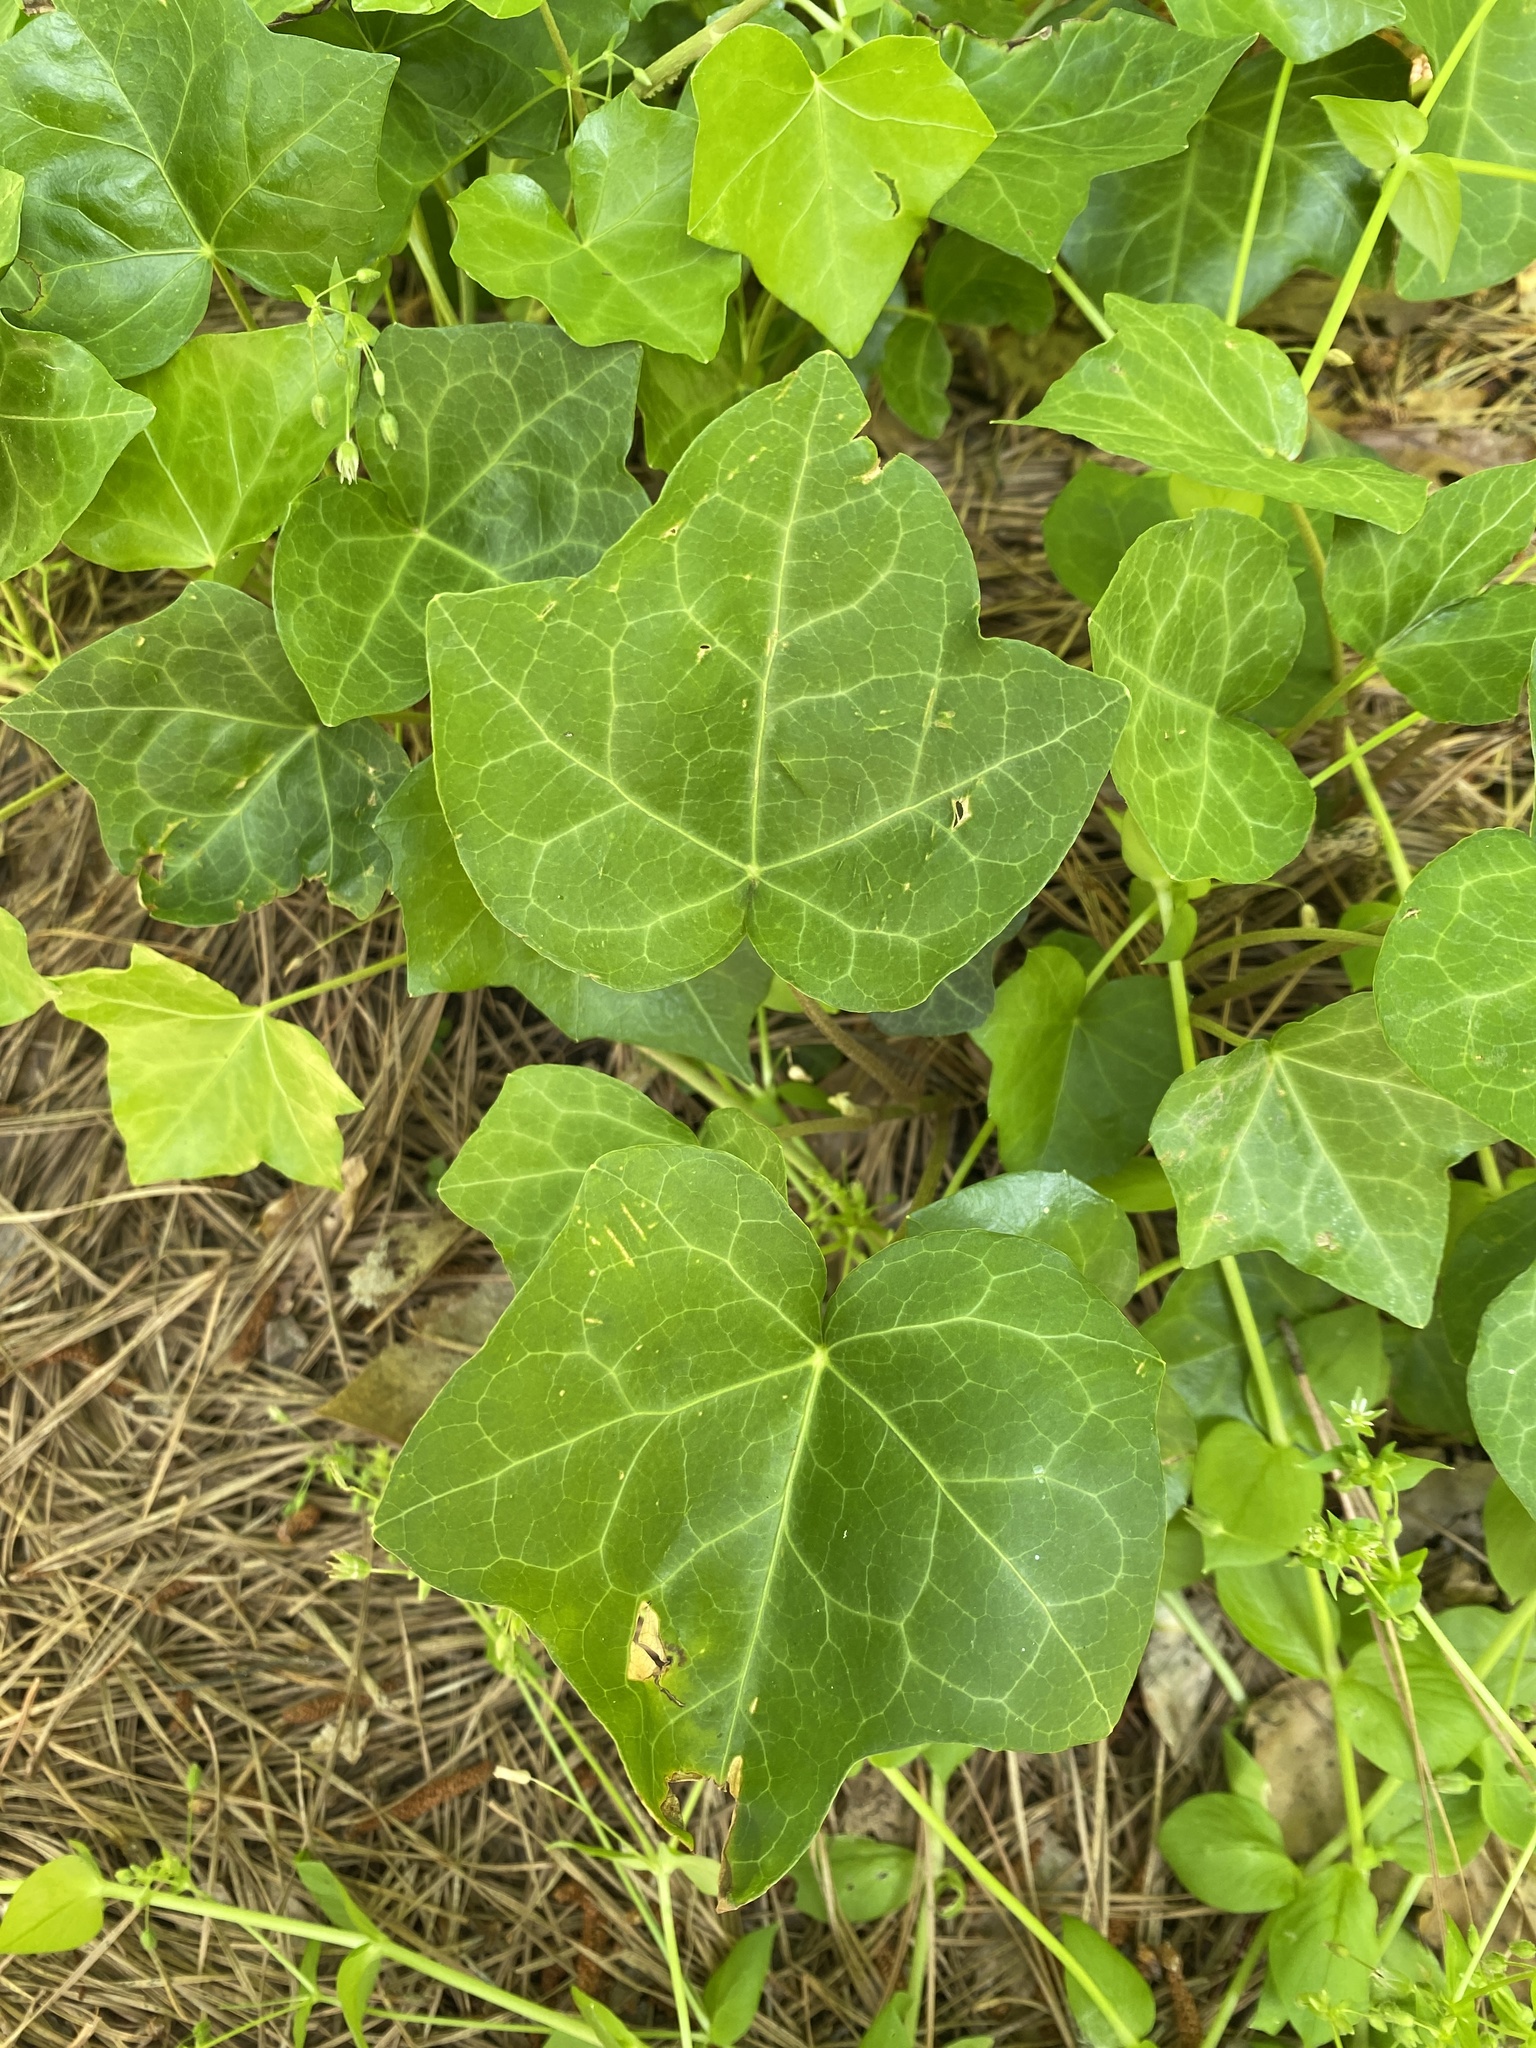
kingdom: Plantae
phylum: Tracheophyta
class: Magnoliopsida
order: Apiales
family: Araliaceae
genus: Hedera
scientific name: Hedera helix
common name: Ivy
